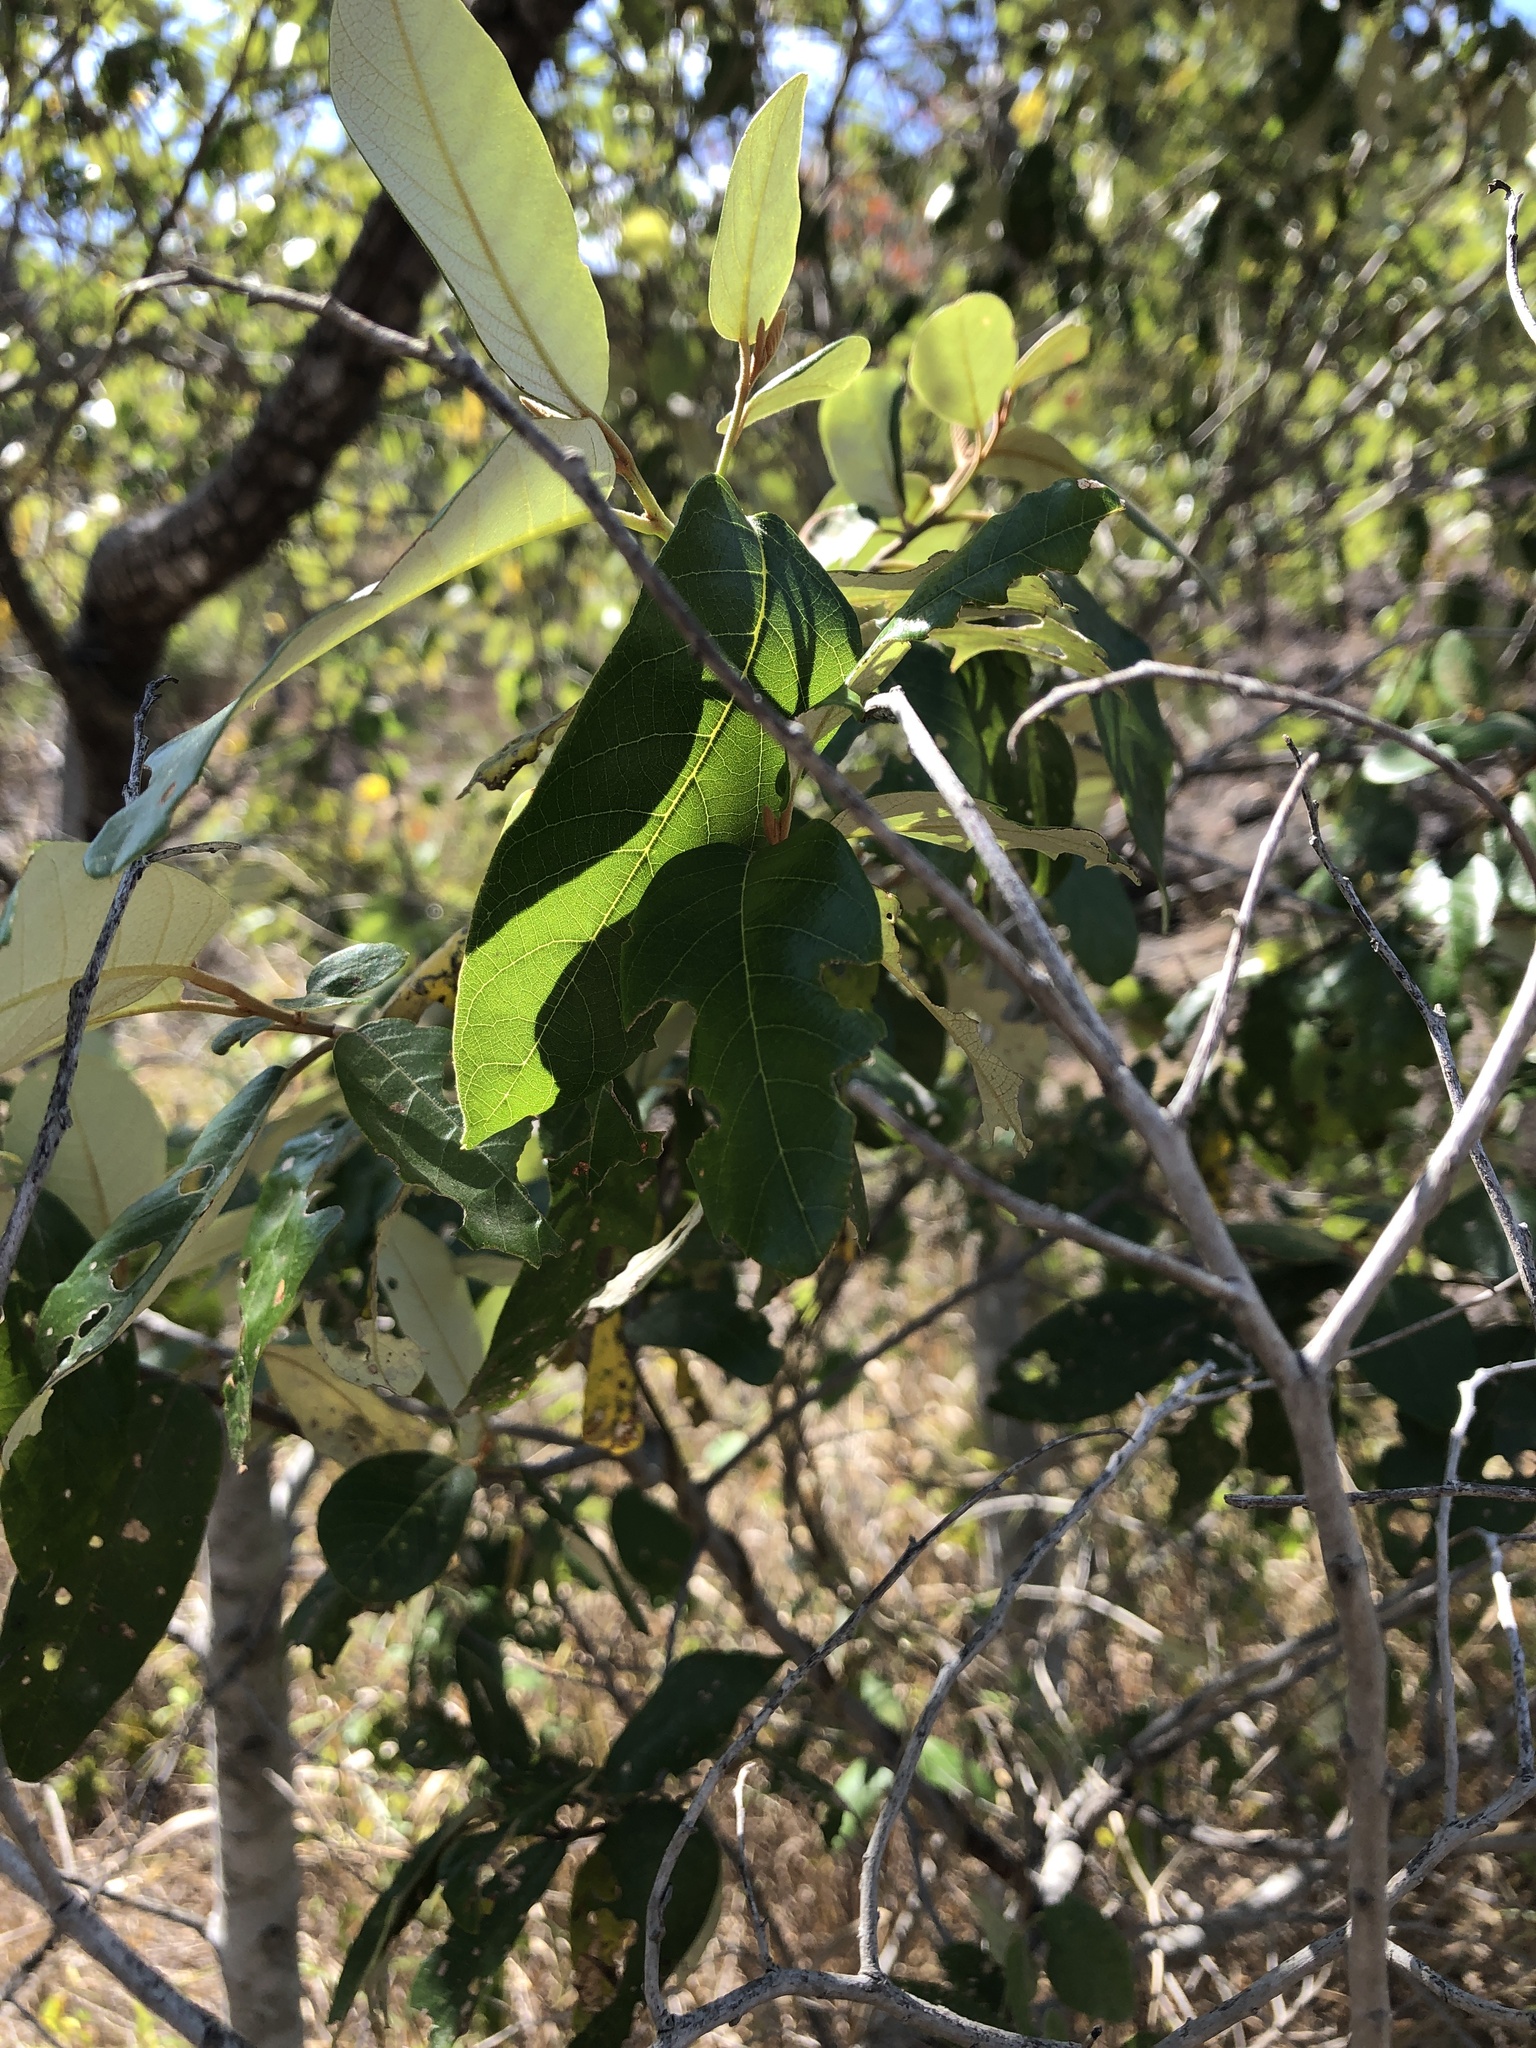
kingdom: Plantae
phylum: Tracheophyta
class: Magnoliopsida
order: Rosales
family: Rhamnaceae
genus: Alphitonia
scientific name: Alphitonia excelsa
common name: Red ash
